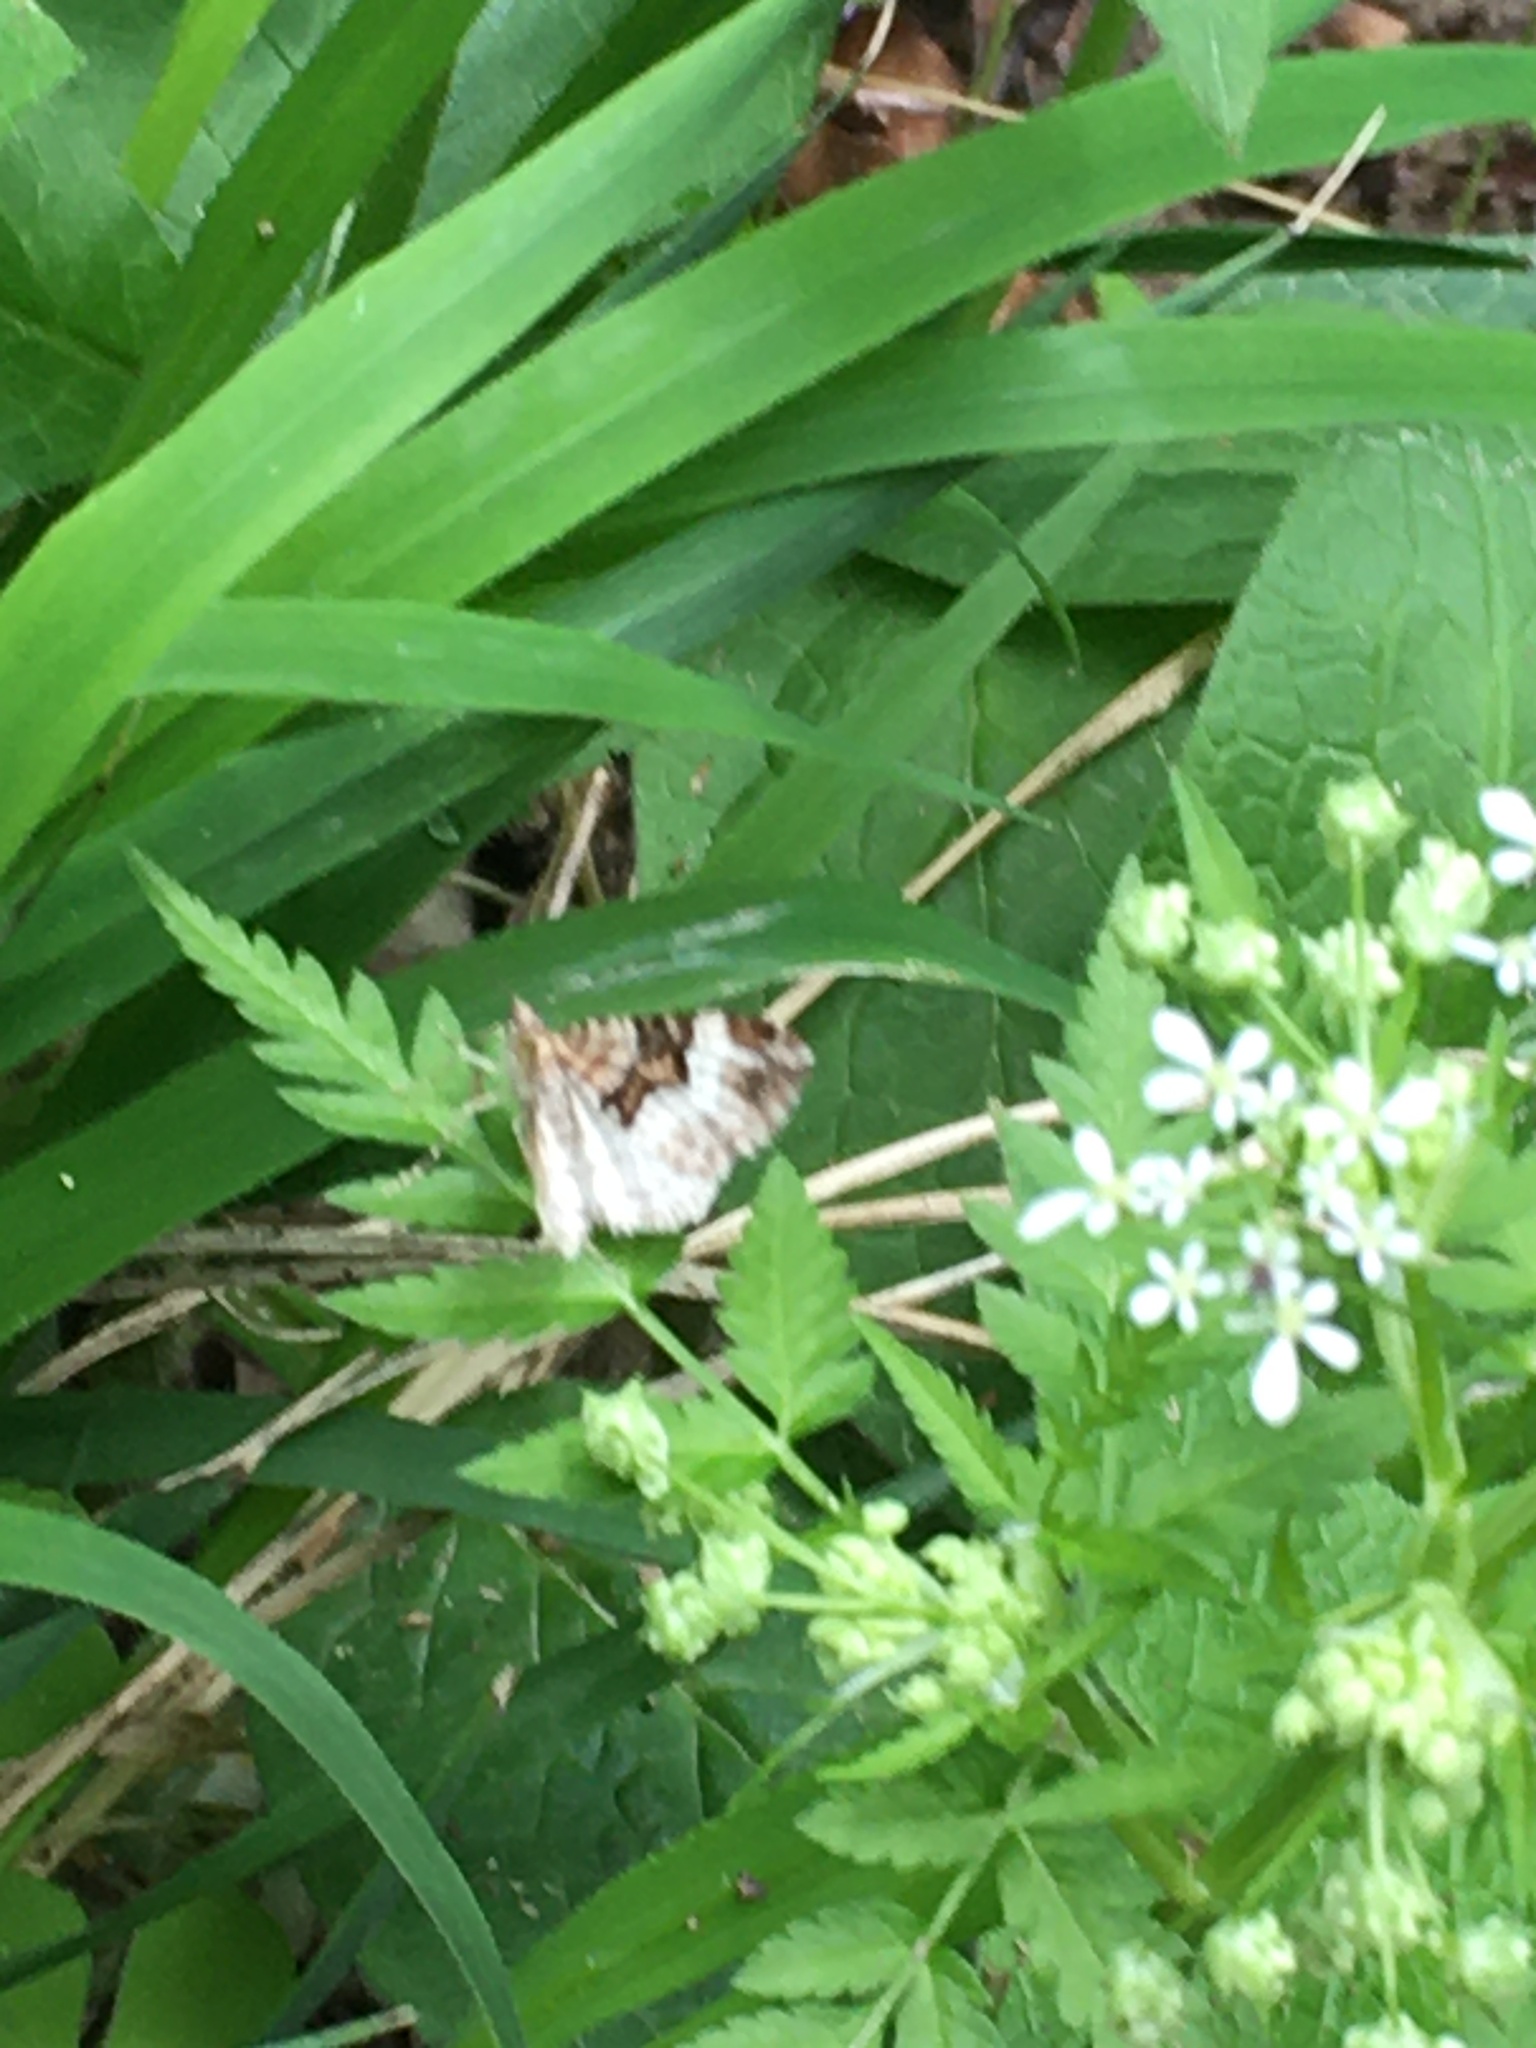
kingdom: Animalia
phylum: Arthropoda
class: Insecta
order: Lepidoptera
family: Geometridae
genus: Xanthorhoe
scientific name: Xanthorhoe biriviata
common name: Balsam carpet
